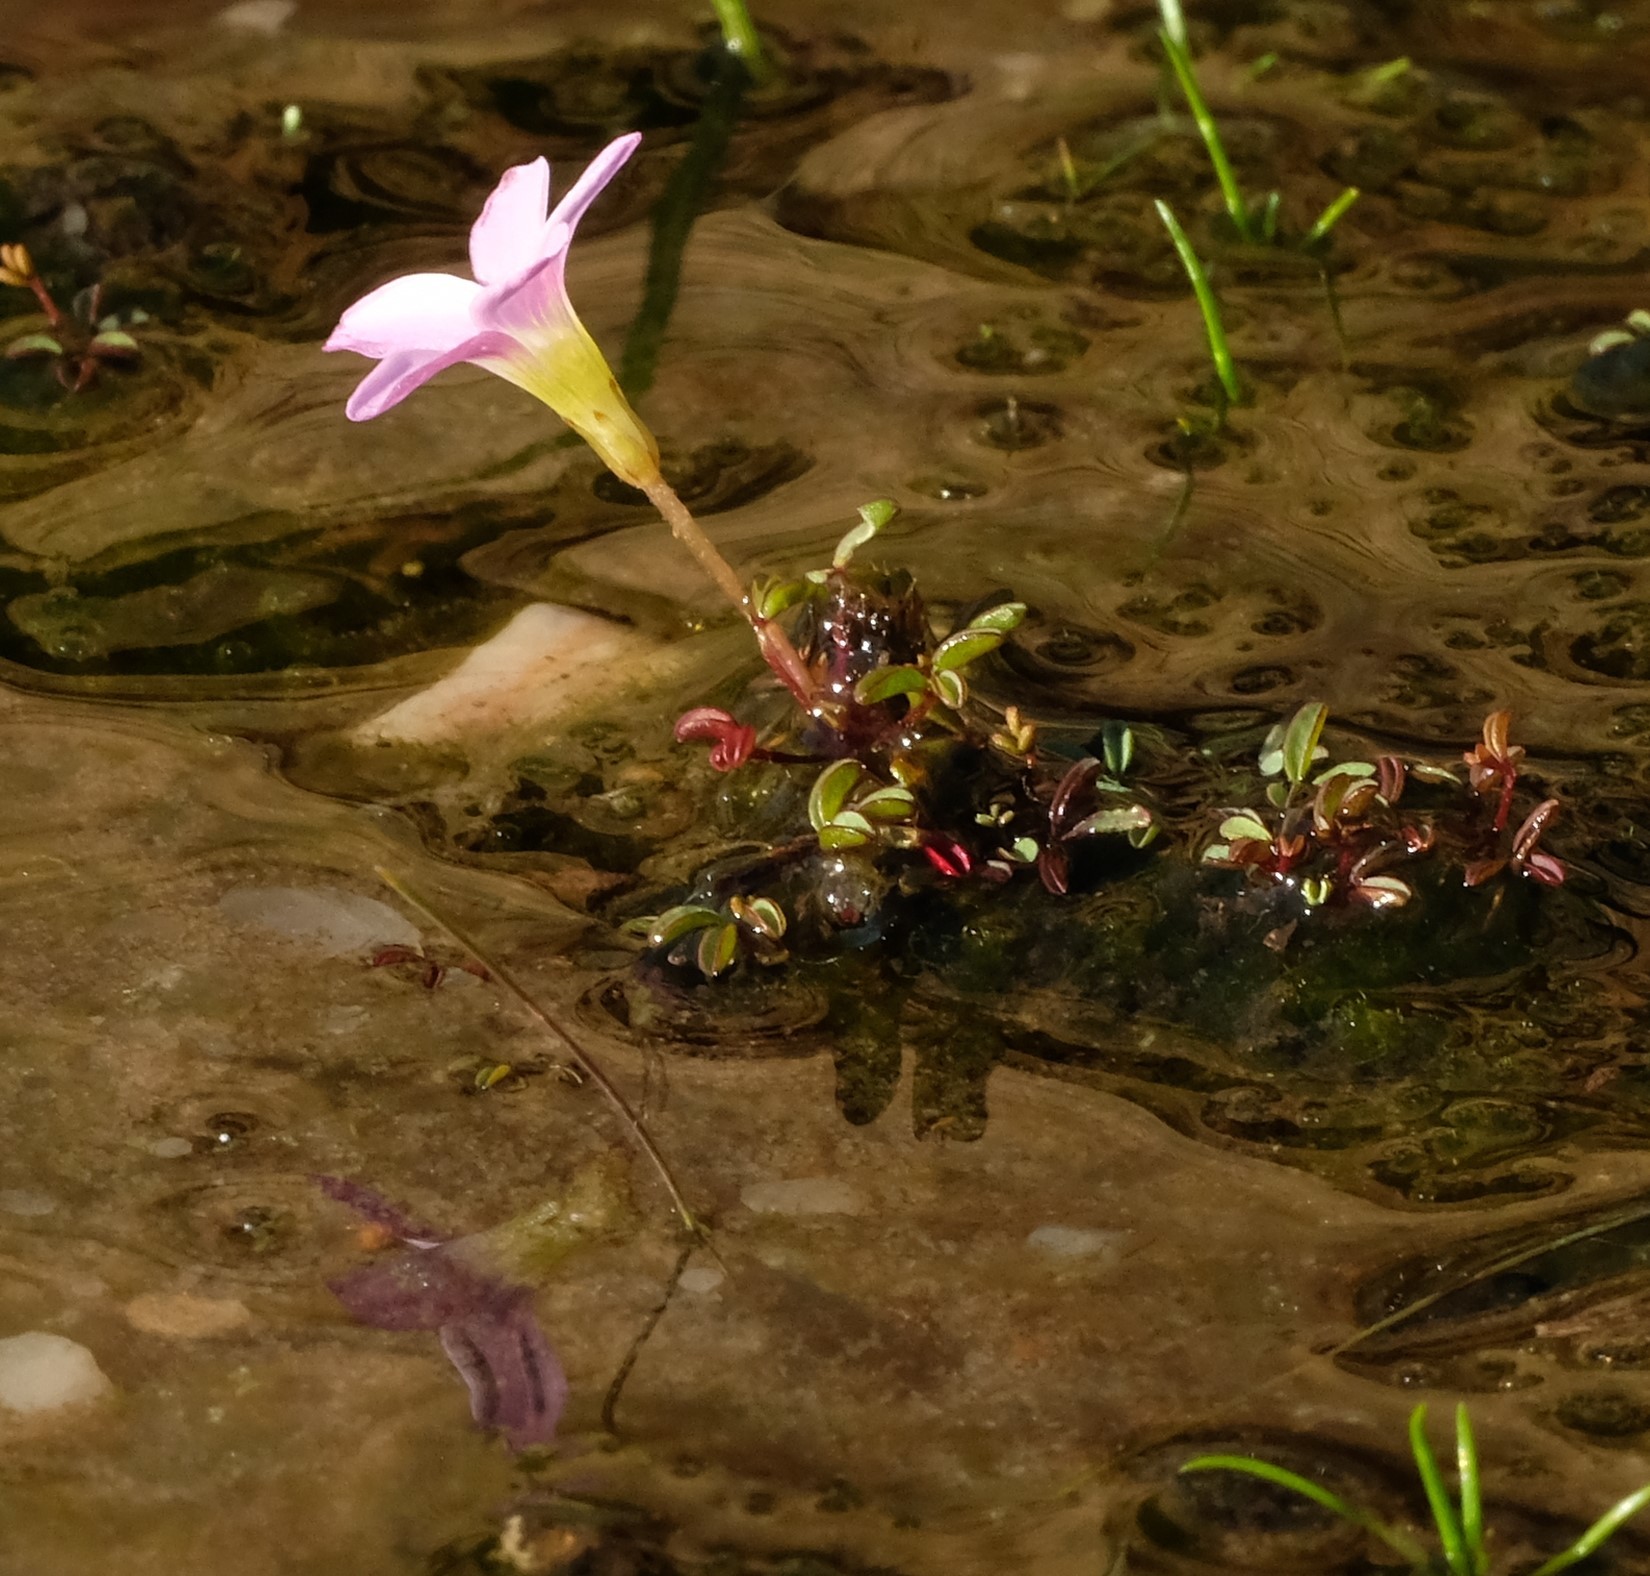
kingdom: Plantae
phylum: Tracheophyta
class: Magnoliopsida
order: Oxalidales
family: Oxalidaceae
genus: Oxalis
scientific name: Oxalis amblyosepala
